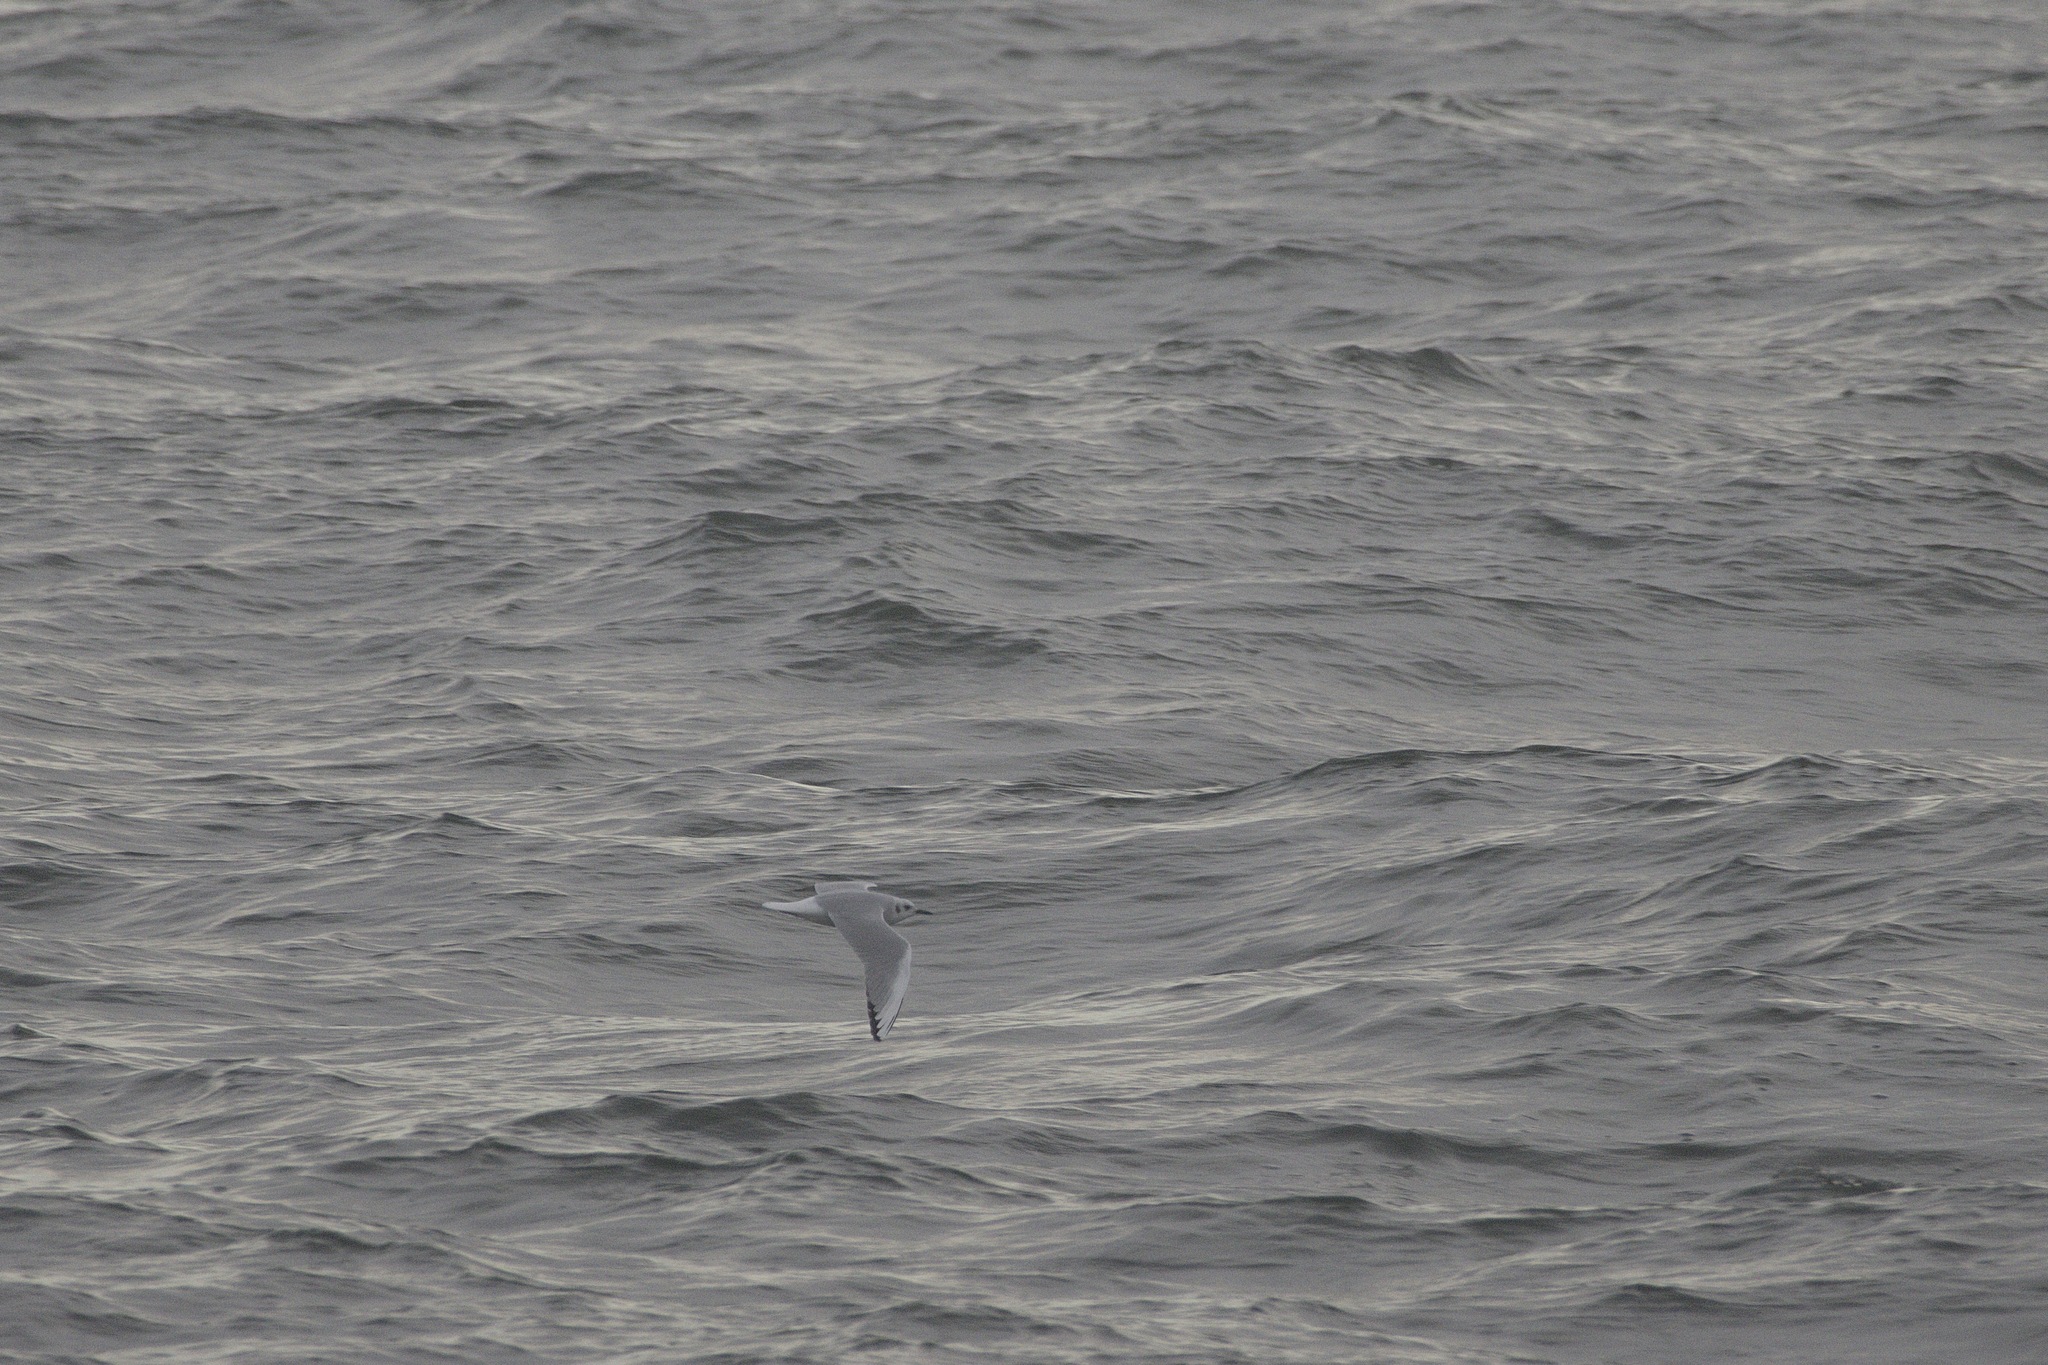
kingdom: Animalia
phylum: Chordata
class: Aves
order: Charadriiformes
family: Laridae
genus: Chroicocephalus
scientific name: Chroicocephalus philadelphia
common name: Bonaparte's gull
